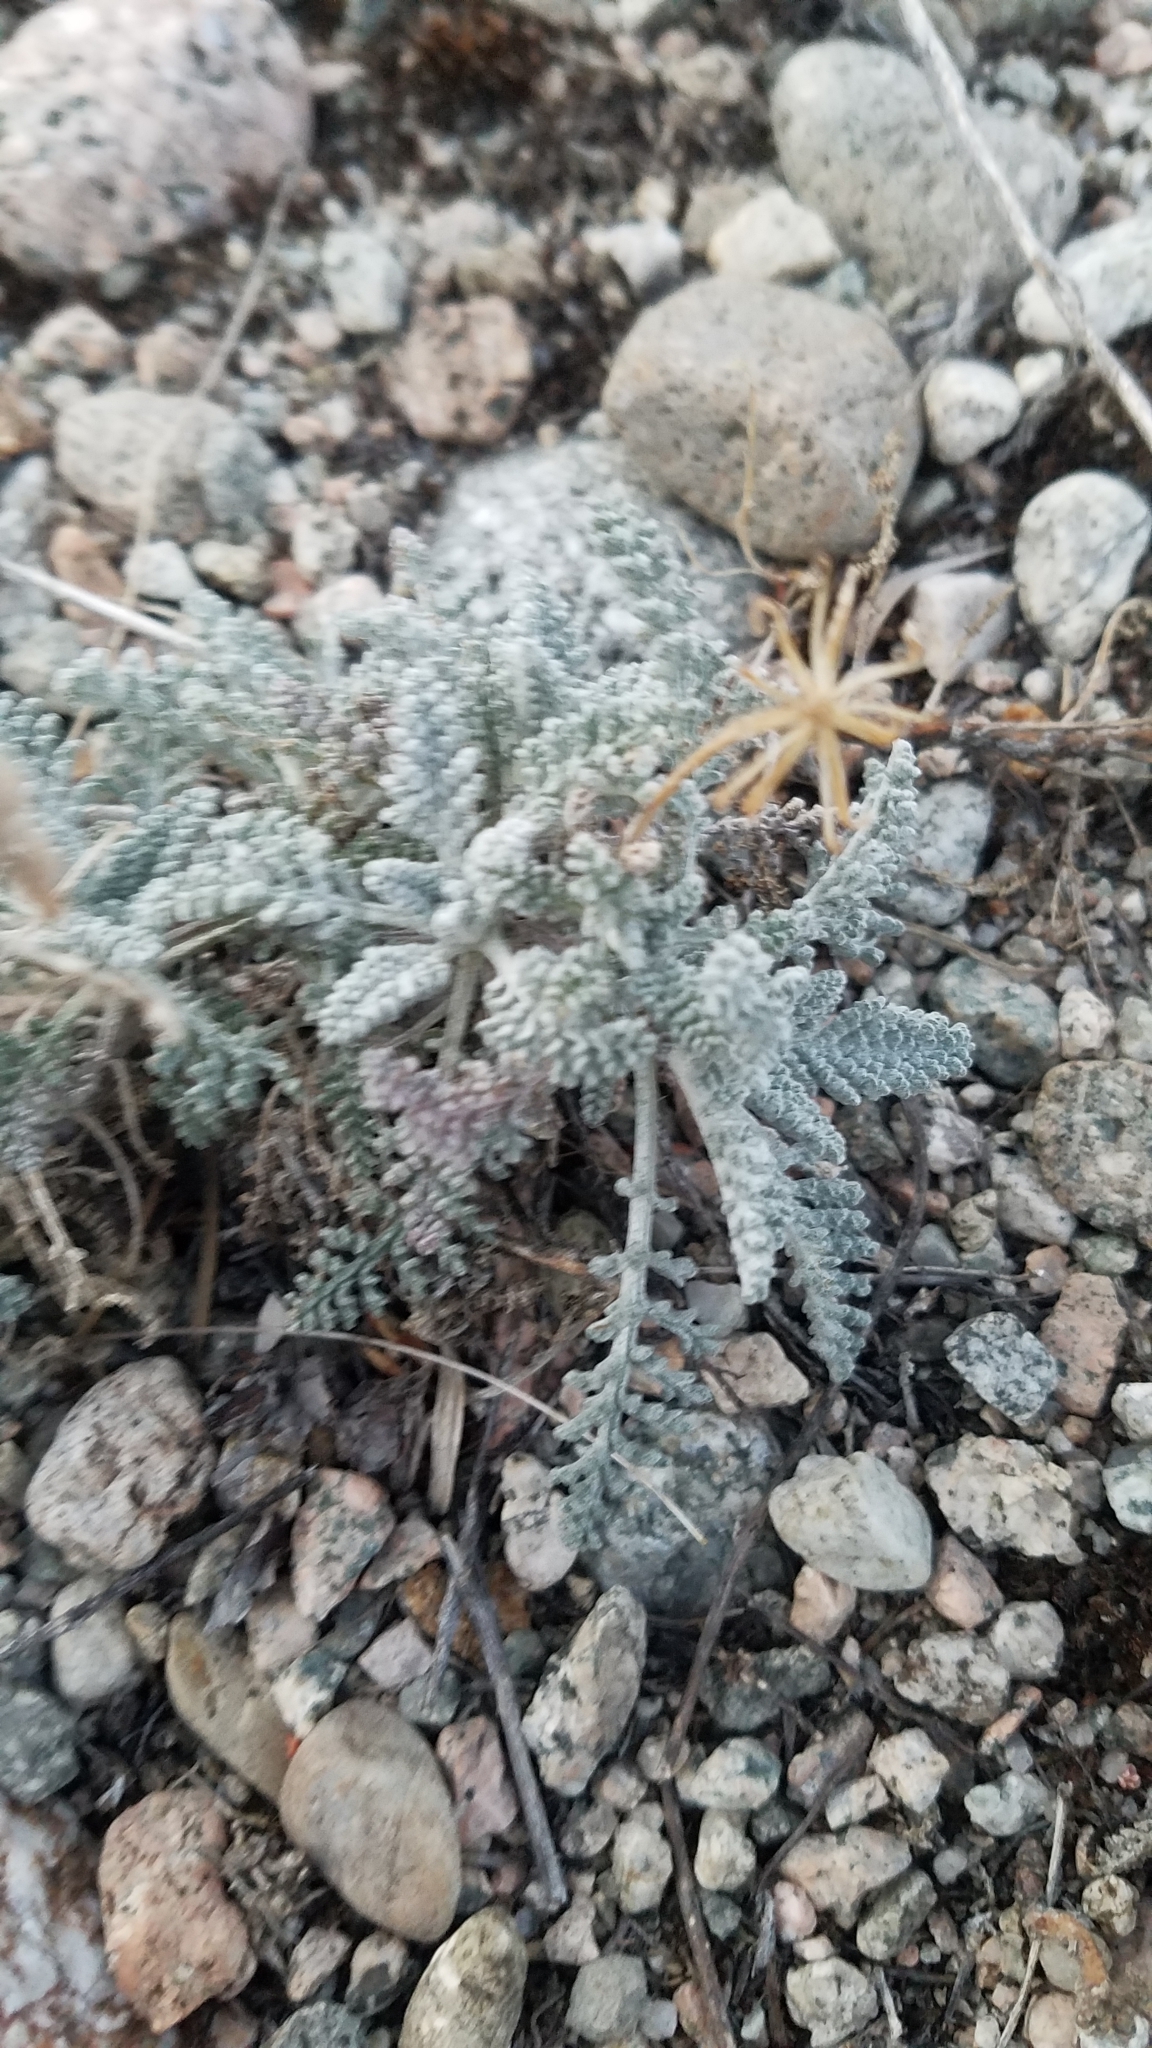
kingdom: Plantae
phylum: Tracheophyta
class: Magnoliopsida
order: Asterales
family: Asteraceae
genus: Chaenactis
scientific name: Chaenactis douglasii
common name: Hoary pincushion
